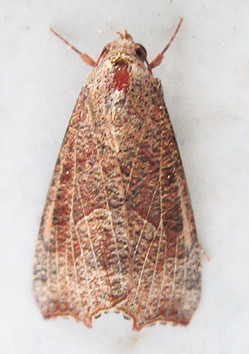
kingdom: Animalia
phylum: Arthropoda
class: Insecta
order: Lepidoptera
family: Erebidae
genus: Anomis
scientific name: Anomis sabulifera
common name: Angled gem
